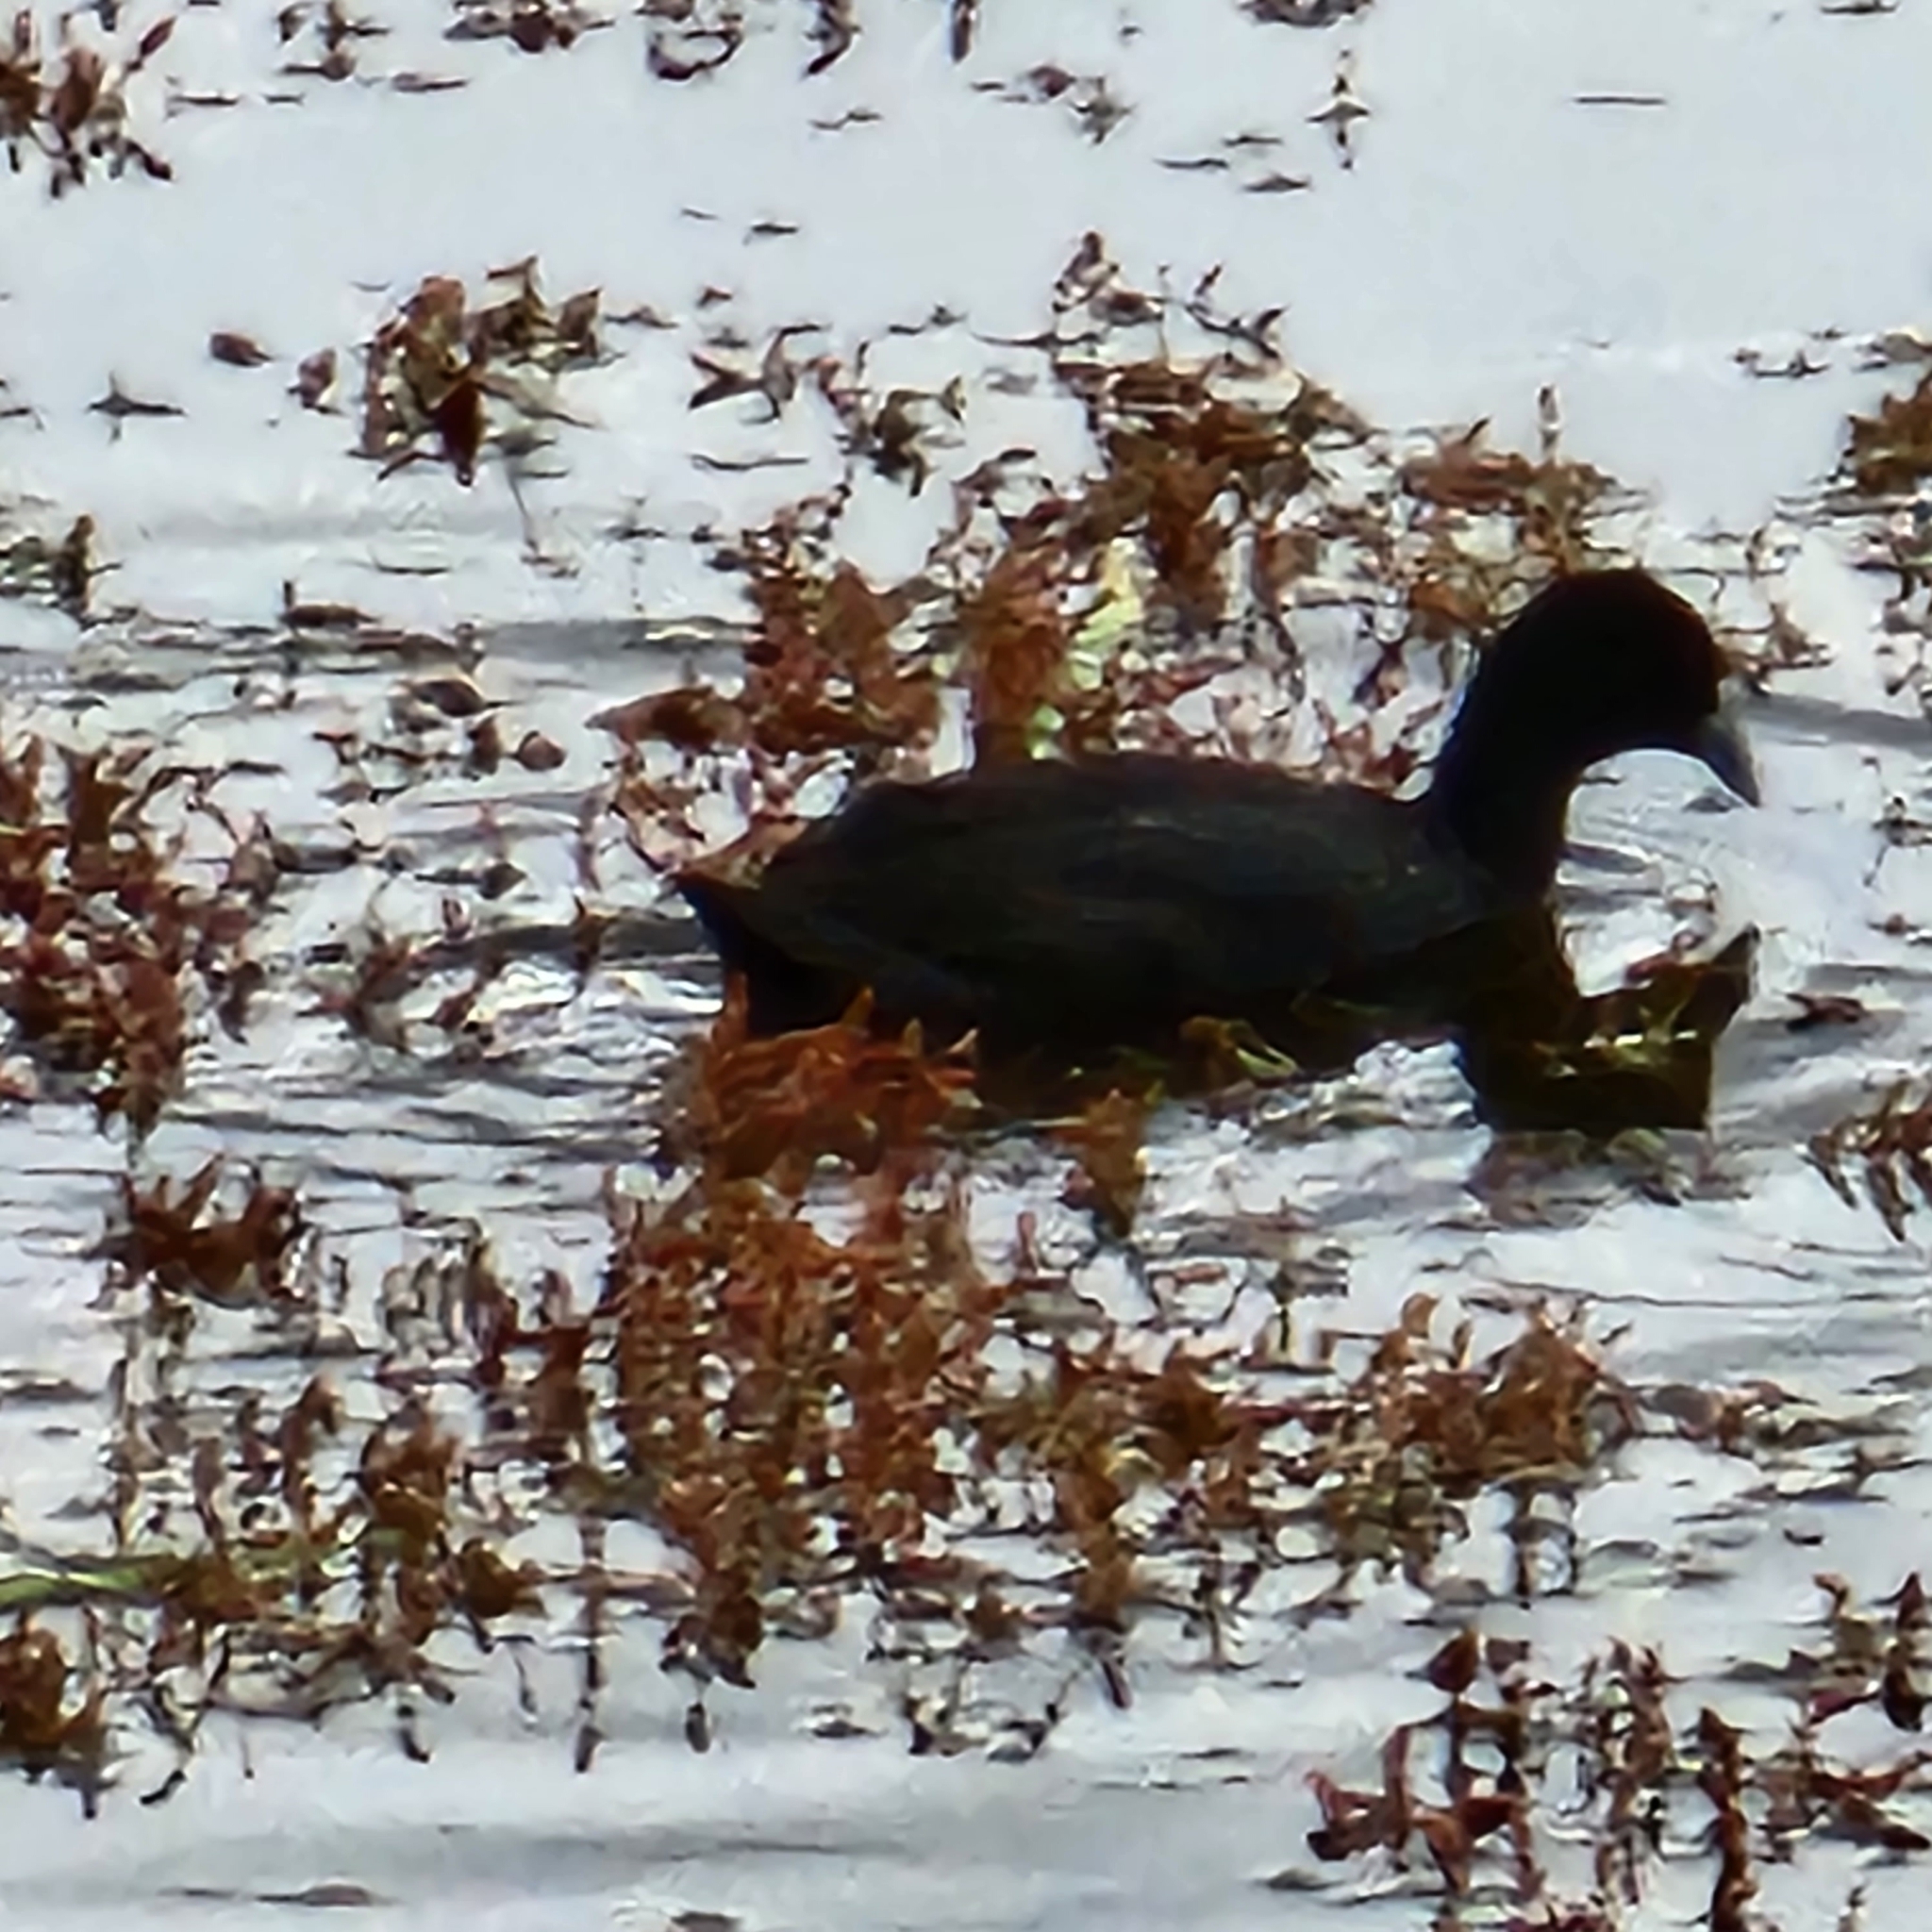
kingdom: Animalia
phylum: Chordata
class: Aves
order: Gruiformes
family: Rallidae
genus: Fulica
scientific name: Fulica atra
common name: Eurasian coot
